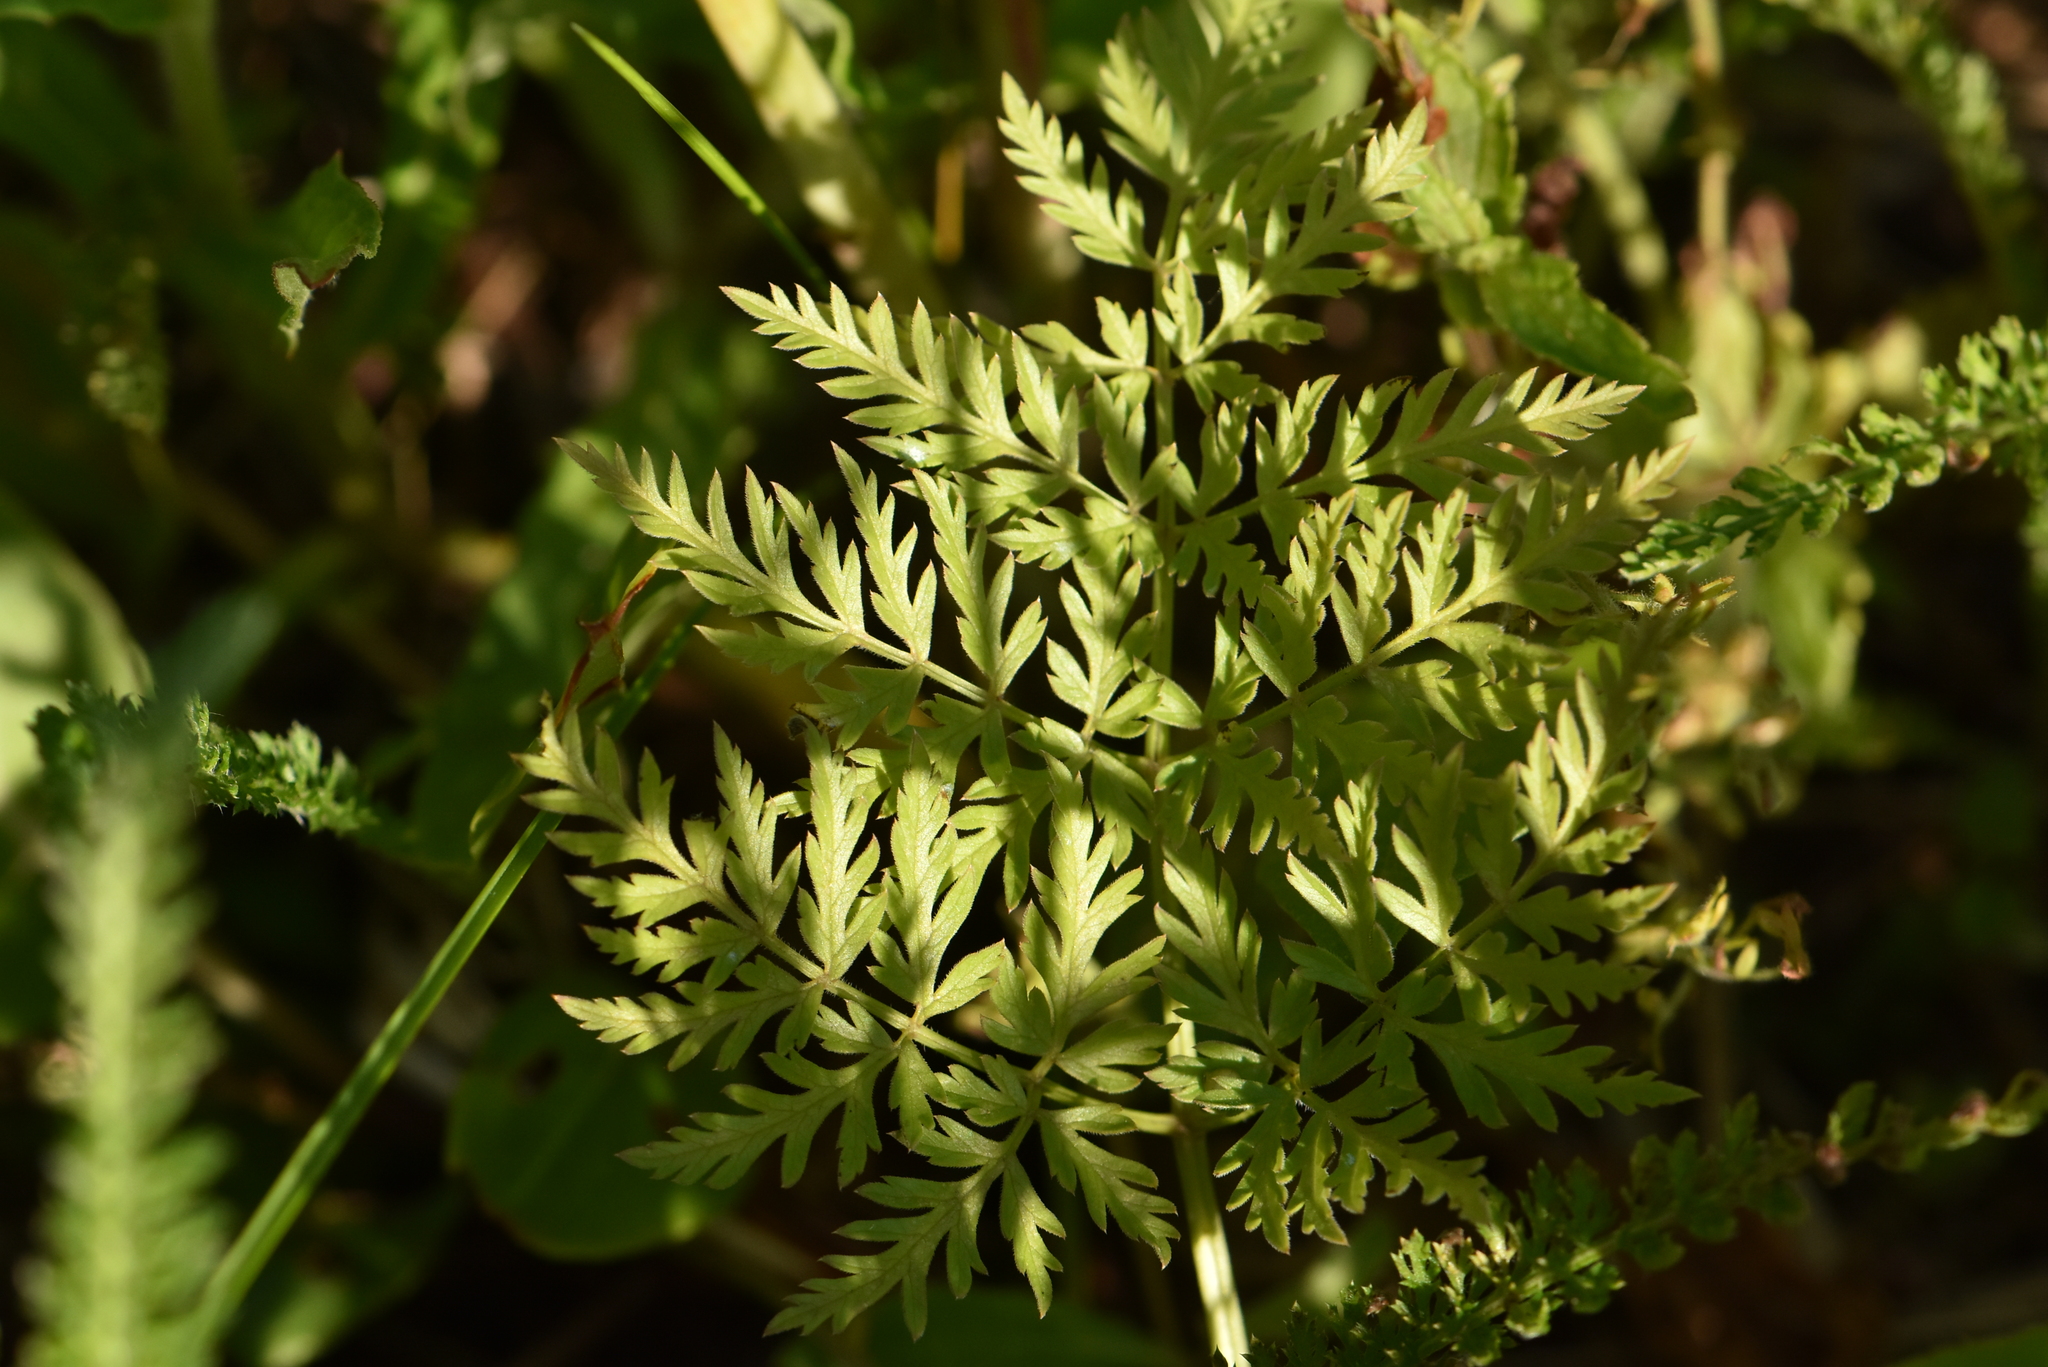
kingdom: Plantae
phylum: Tracheophyta
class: Magnoliopsida
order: Apiales
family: Apiaceae
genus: Anthriscus
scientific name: Anthriscus sylvestris
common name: Cow parsley
